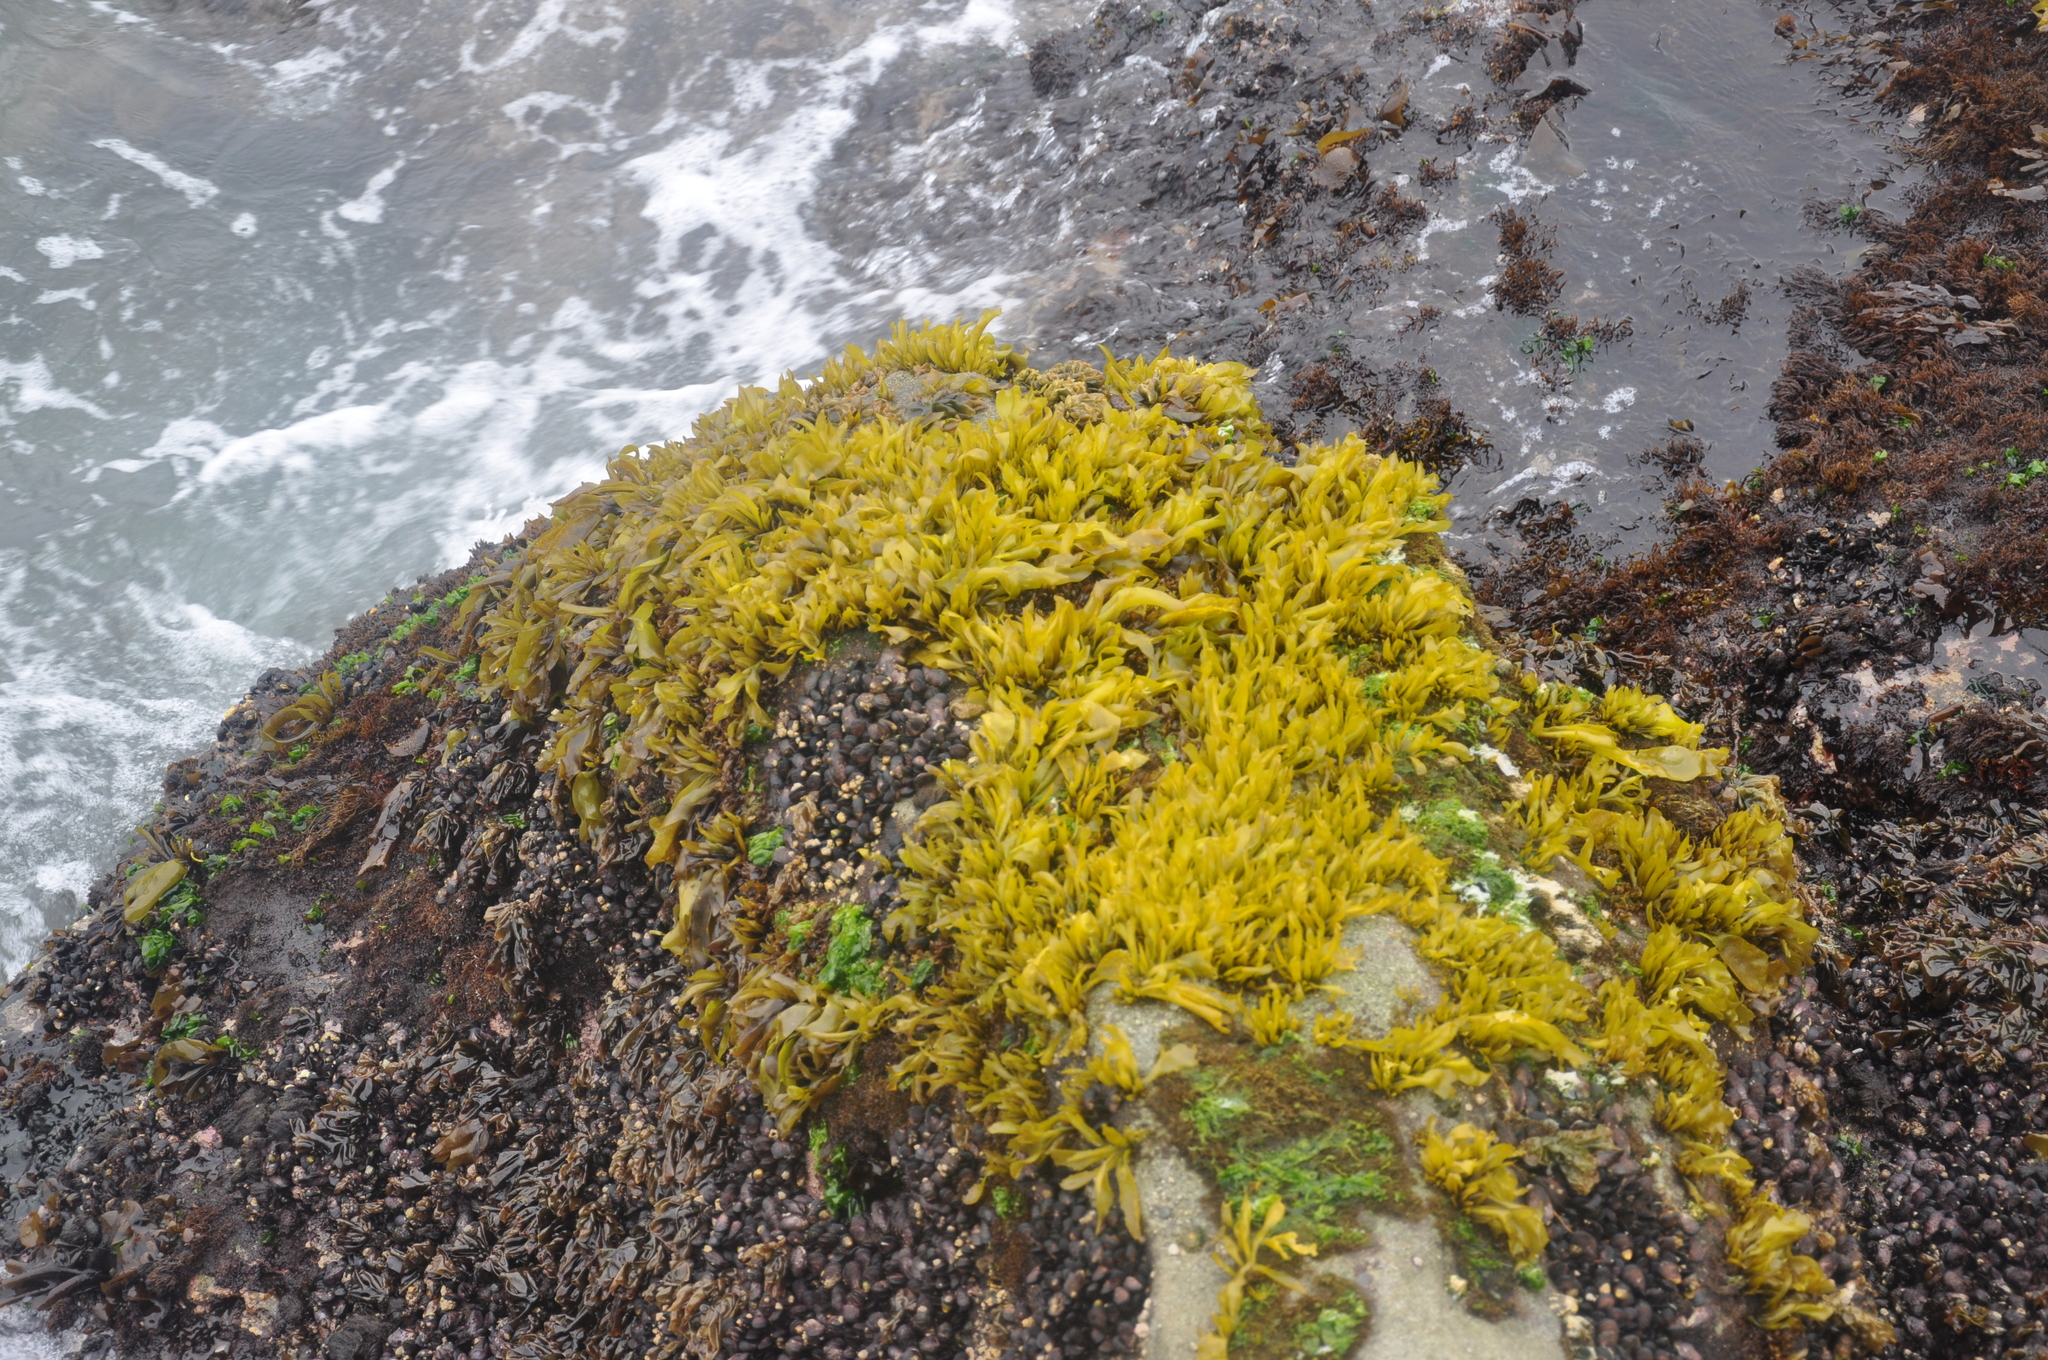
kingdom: Plantae
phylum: Rhodophyta
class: Florideophyceae
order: Gigartinales
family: Gigartinaceae
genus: Mazzaella
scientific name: Mazzaella laminarioides
